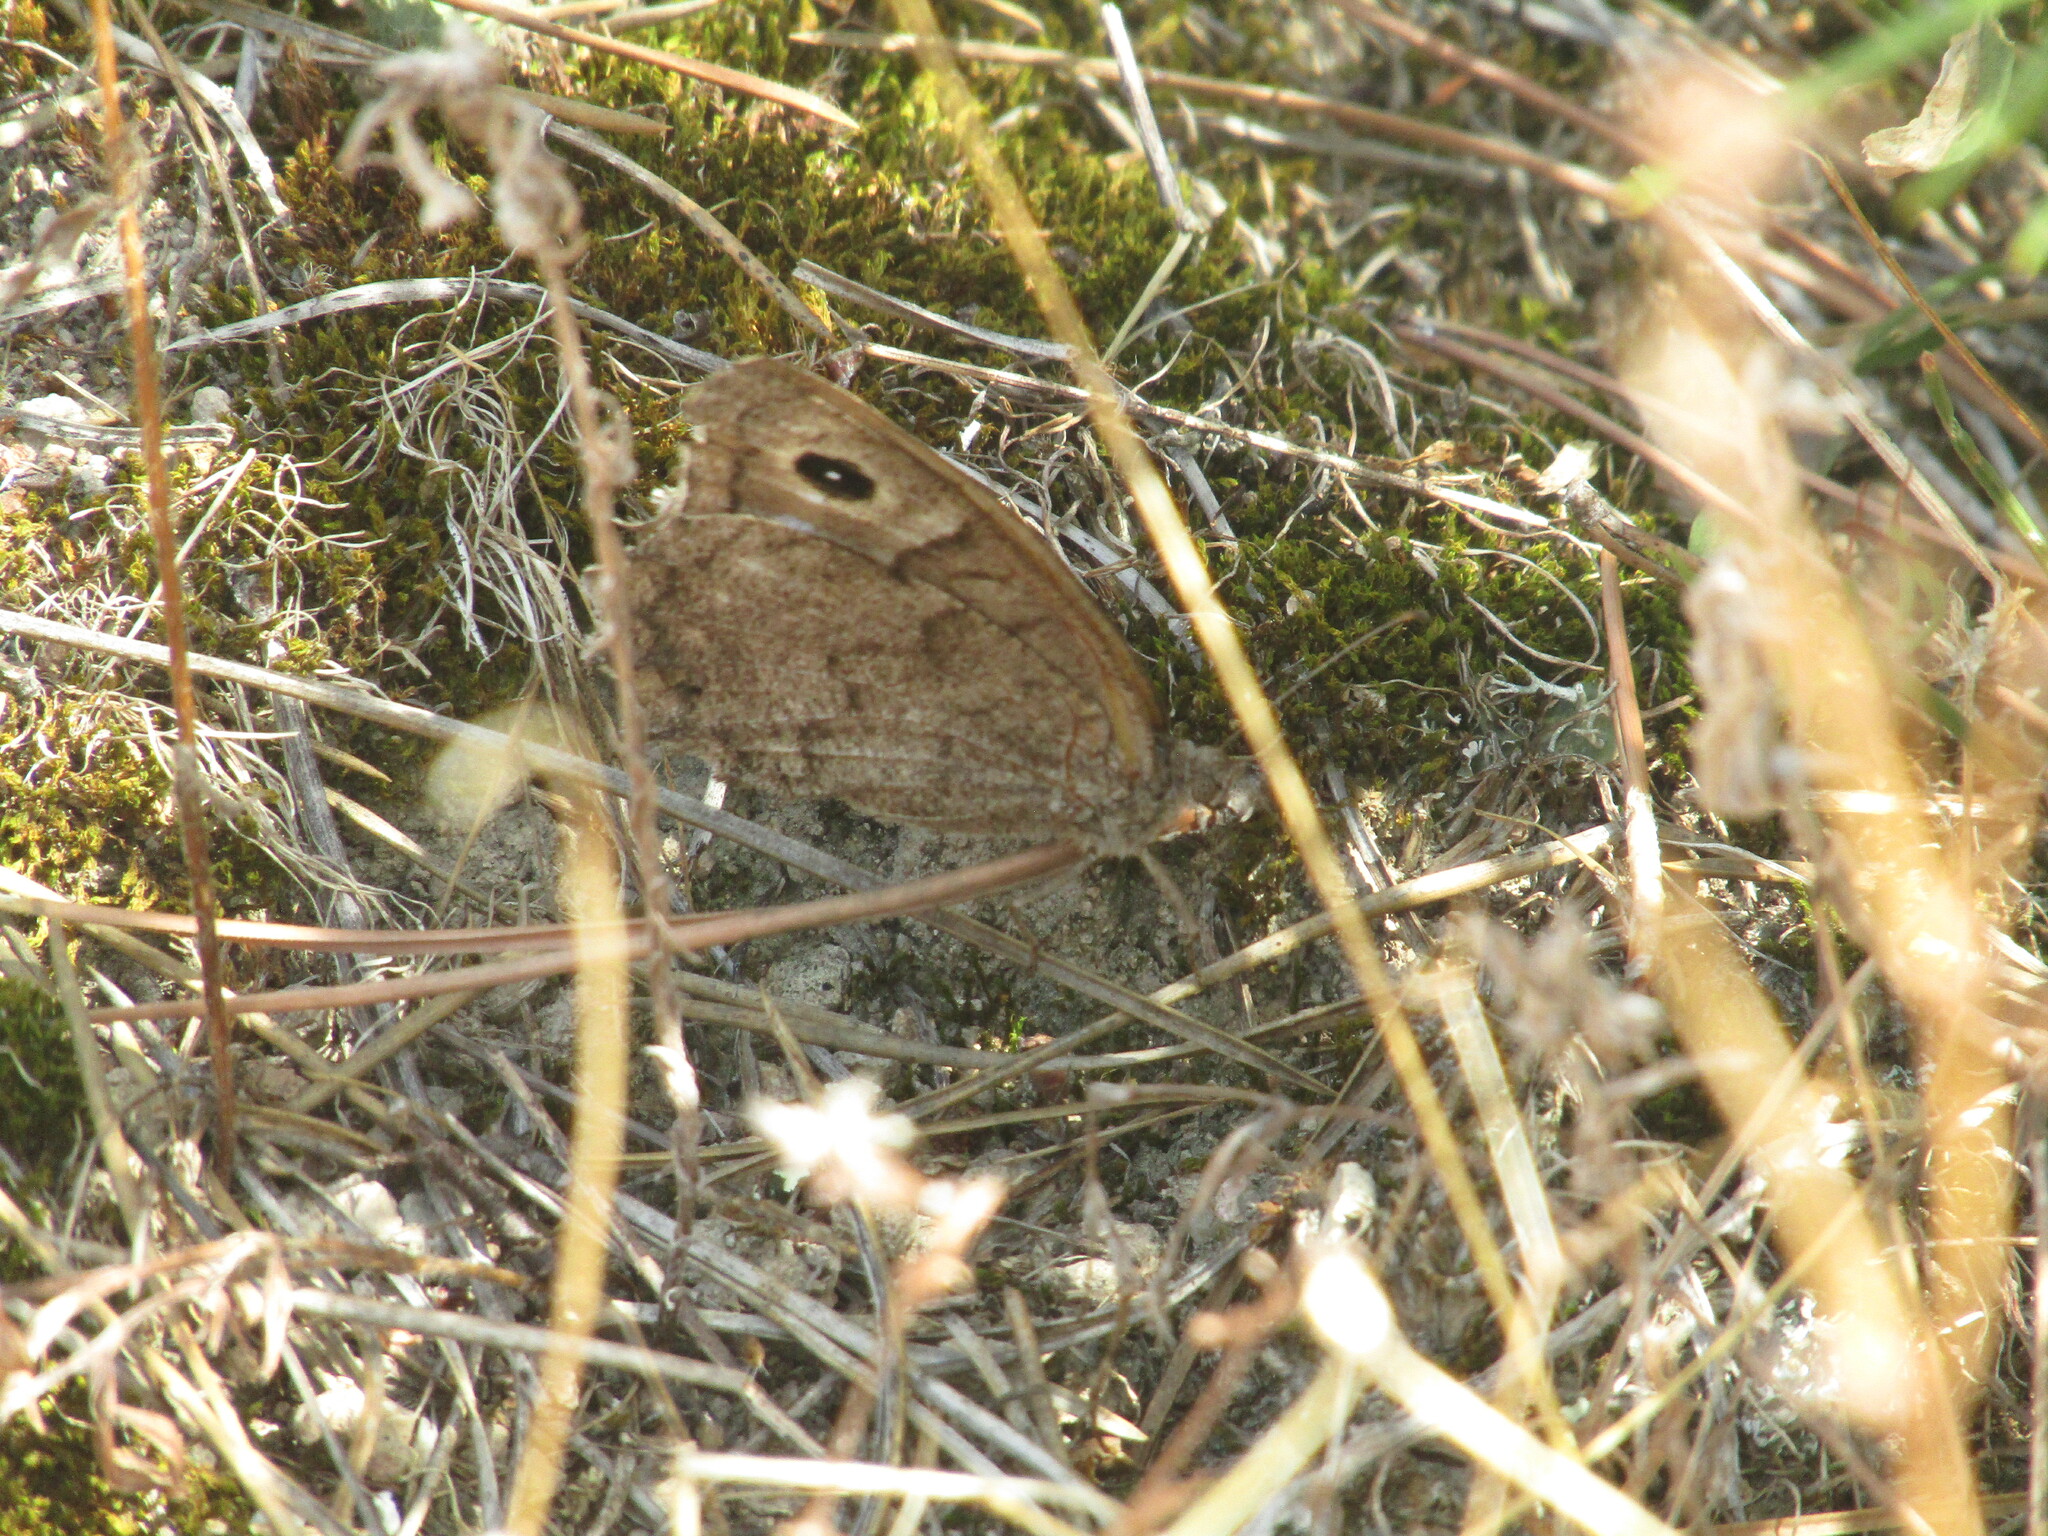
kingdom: Animalia
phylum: Arthropoda
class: Insecta
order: Lepidoptera
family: Nymphalidae
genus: Hipparchia
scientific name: Hipparchia statilinus
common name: Tree grayling
